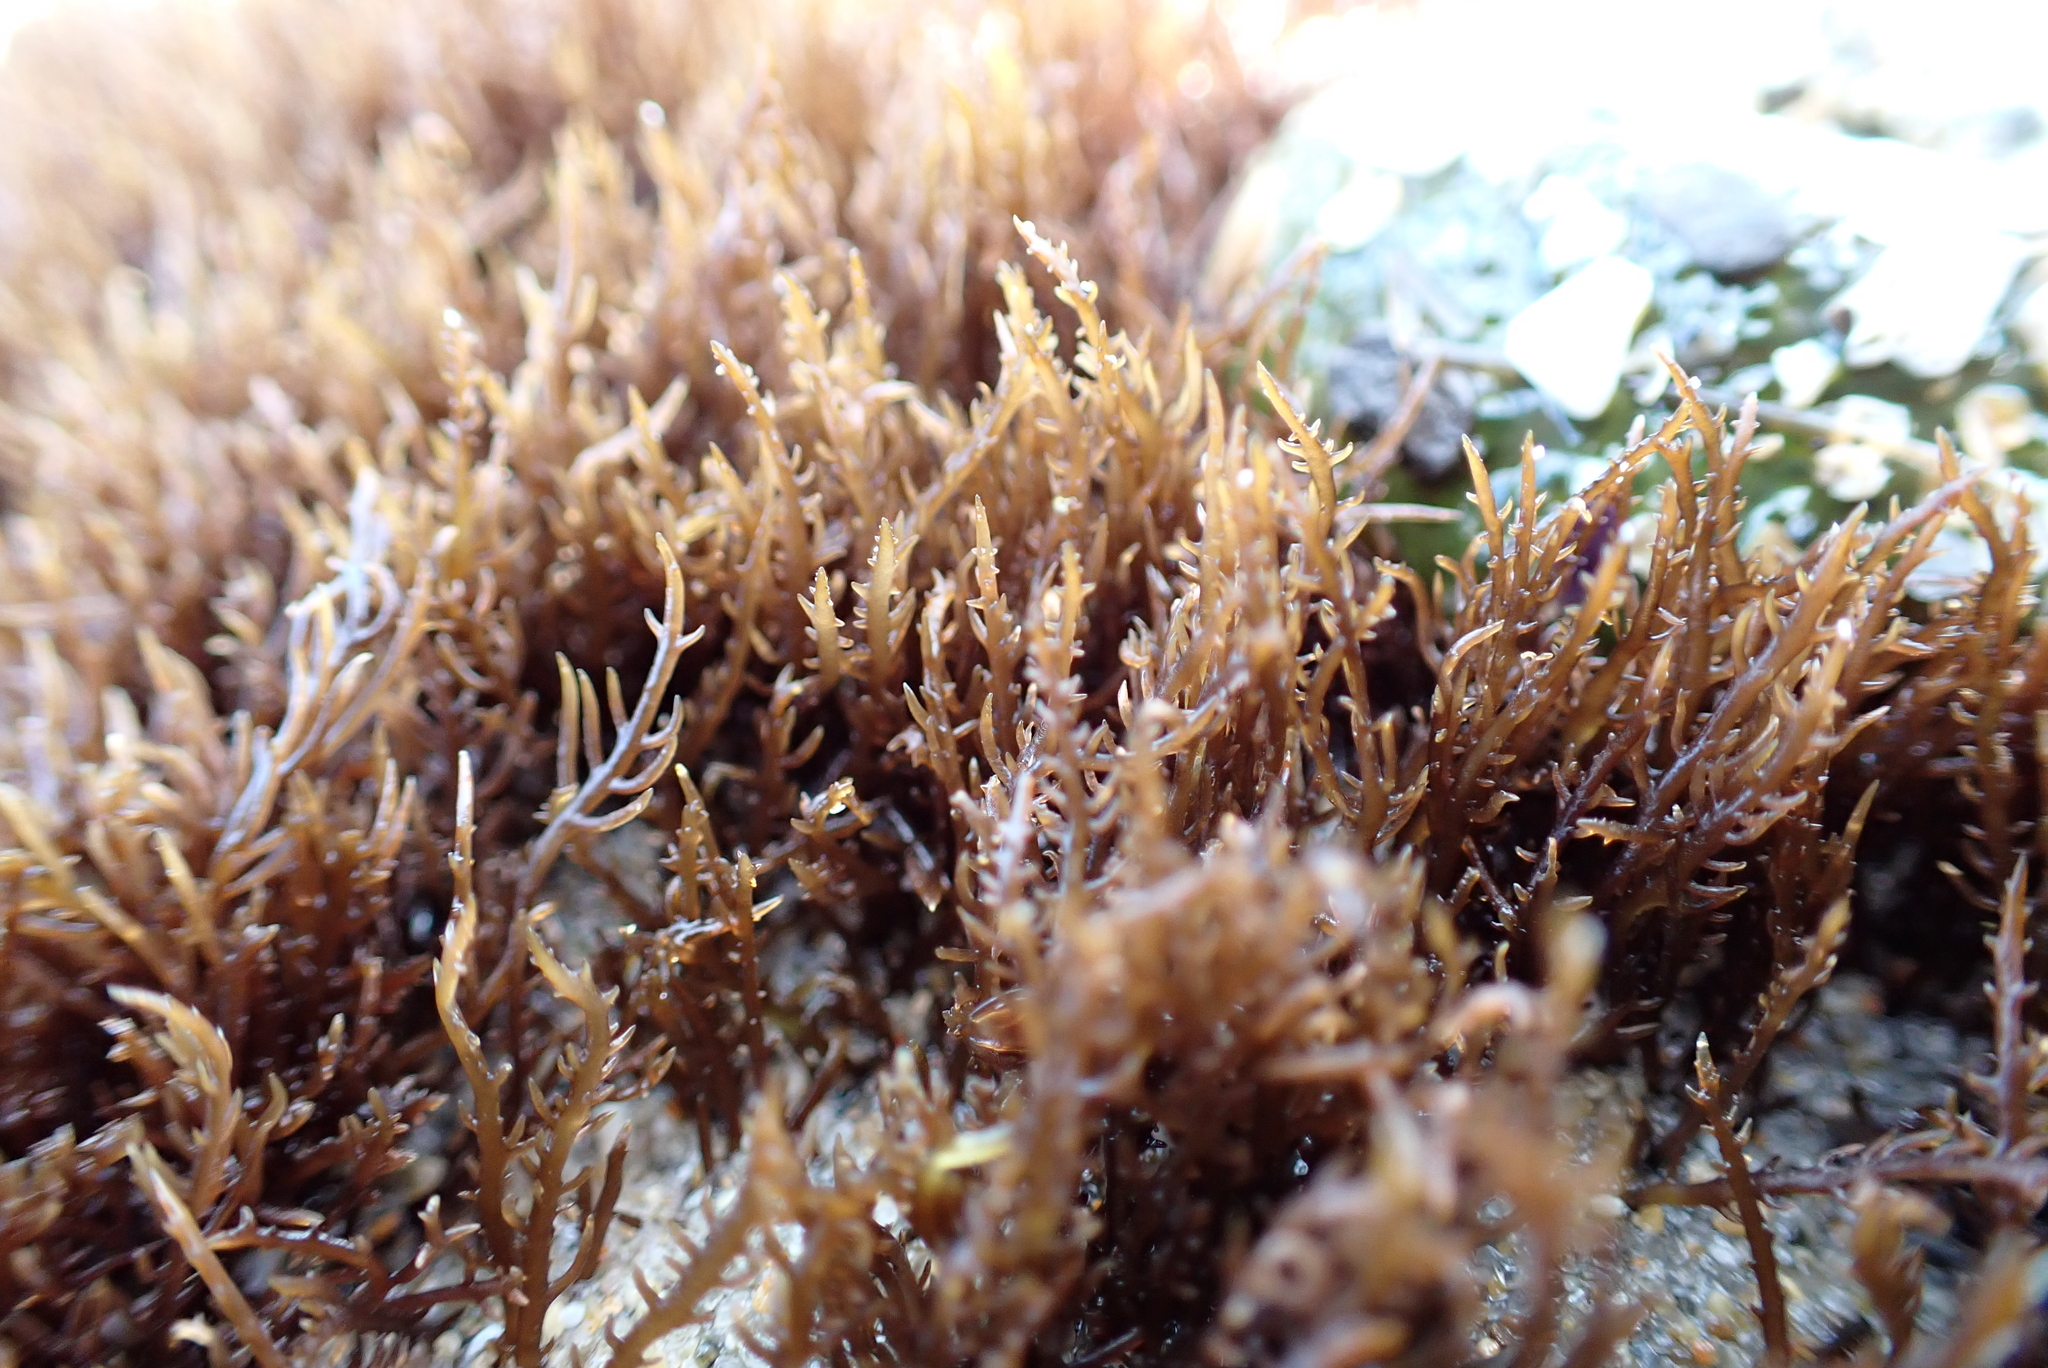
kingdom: Plantae
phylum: Rhodophyta
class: Florideophyceae
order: Gigartinales
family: Endocladiaceae
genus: Endocladia
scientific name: Endocladia muricata
